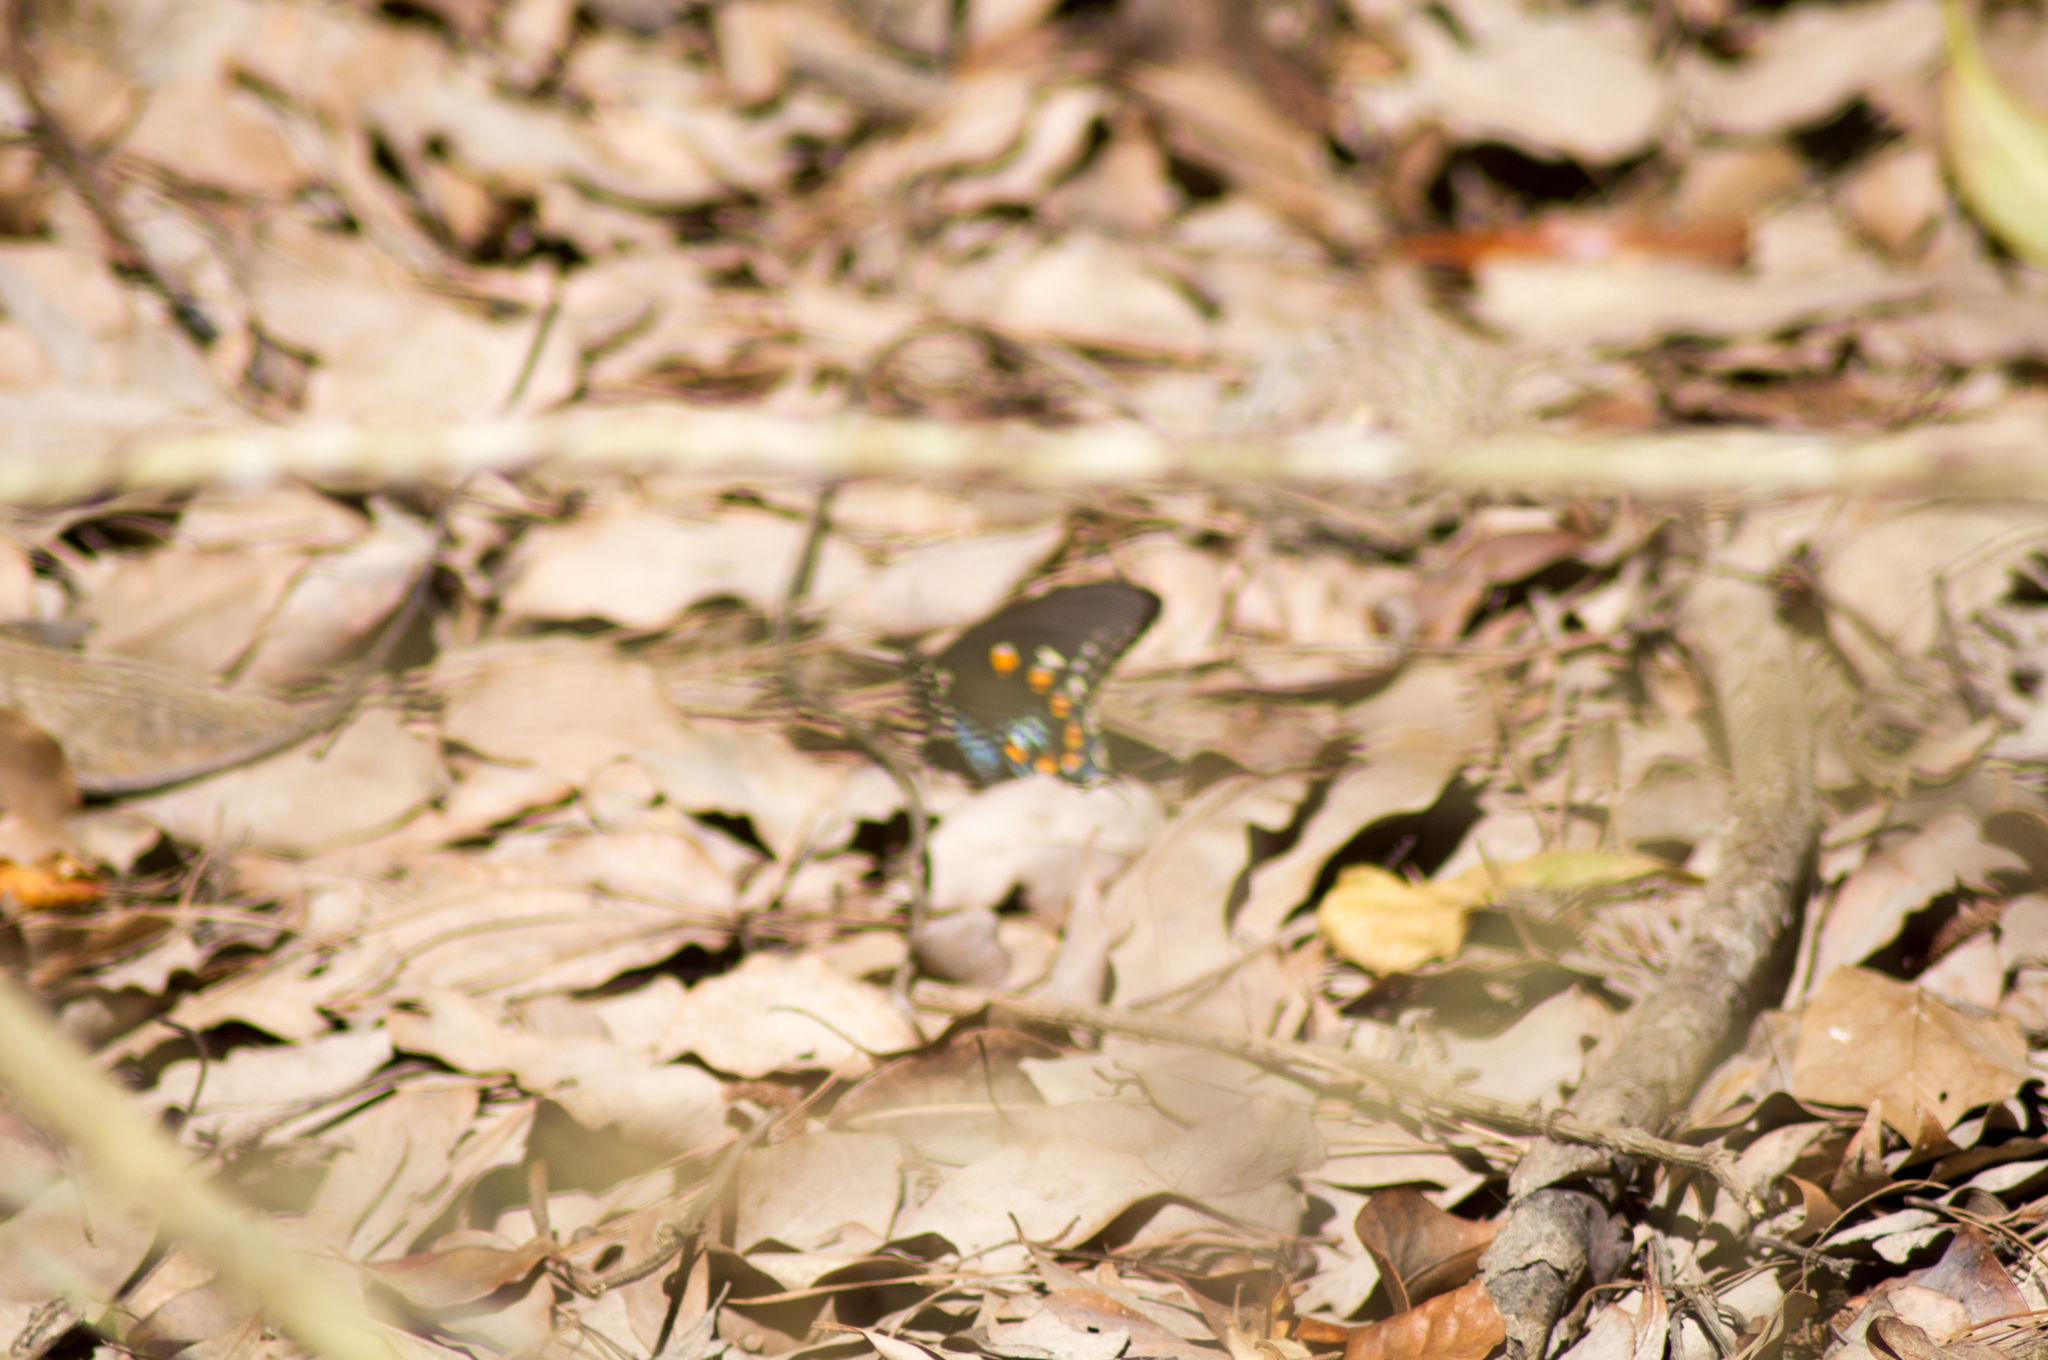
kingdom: Animalia
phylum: Arthropoda
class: Insecta
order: Lepidoptera
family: Papilionidae
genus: Battus
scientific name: Battus philenor
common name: Pipevine swallowtail
